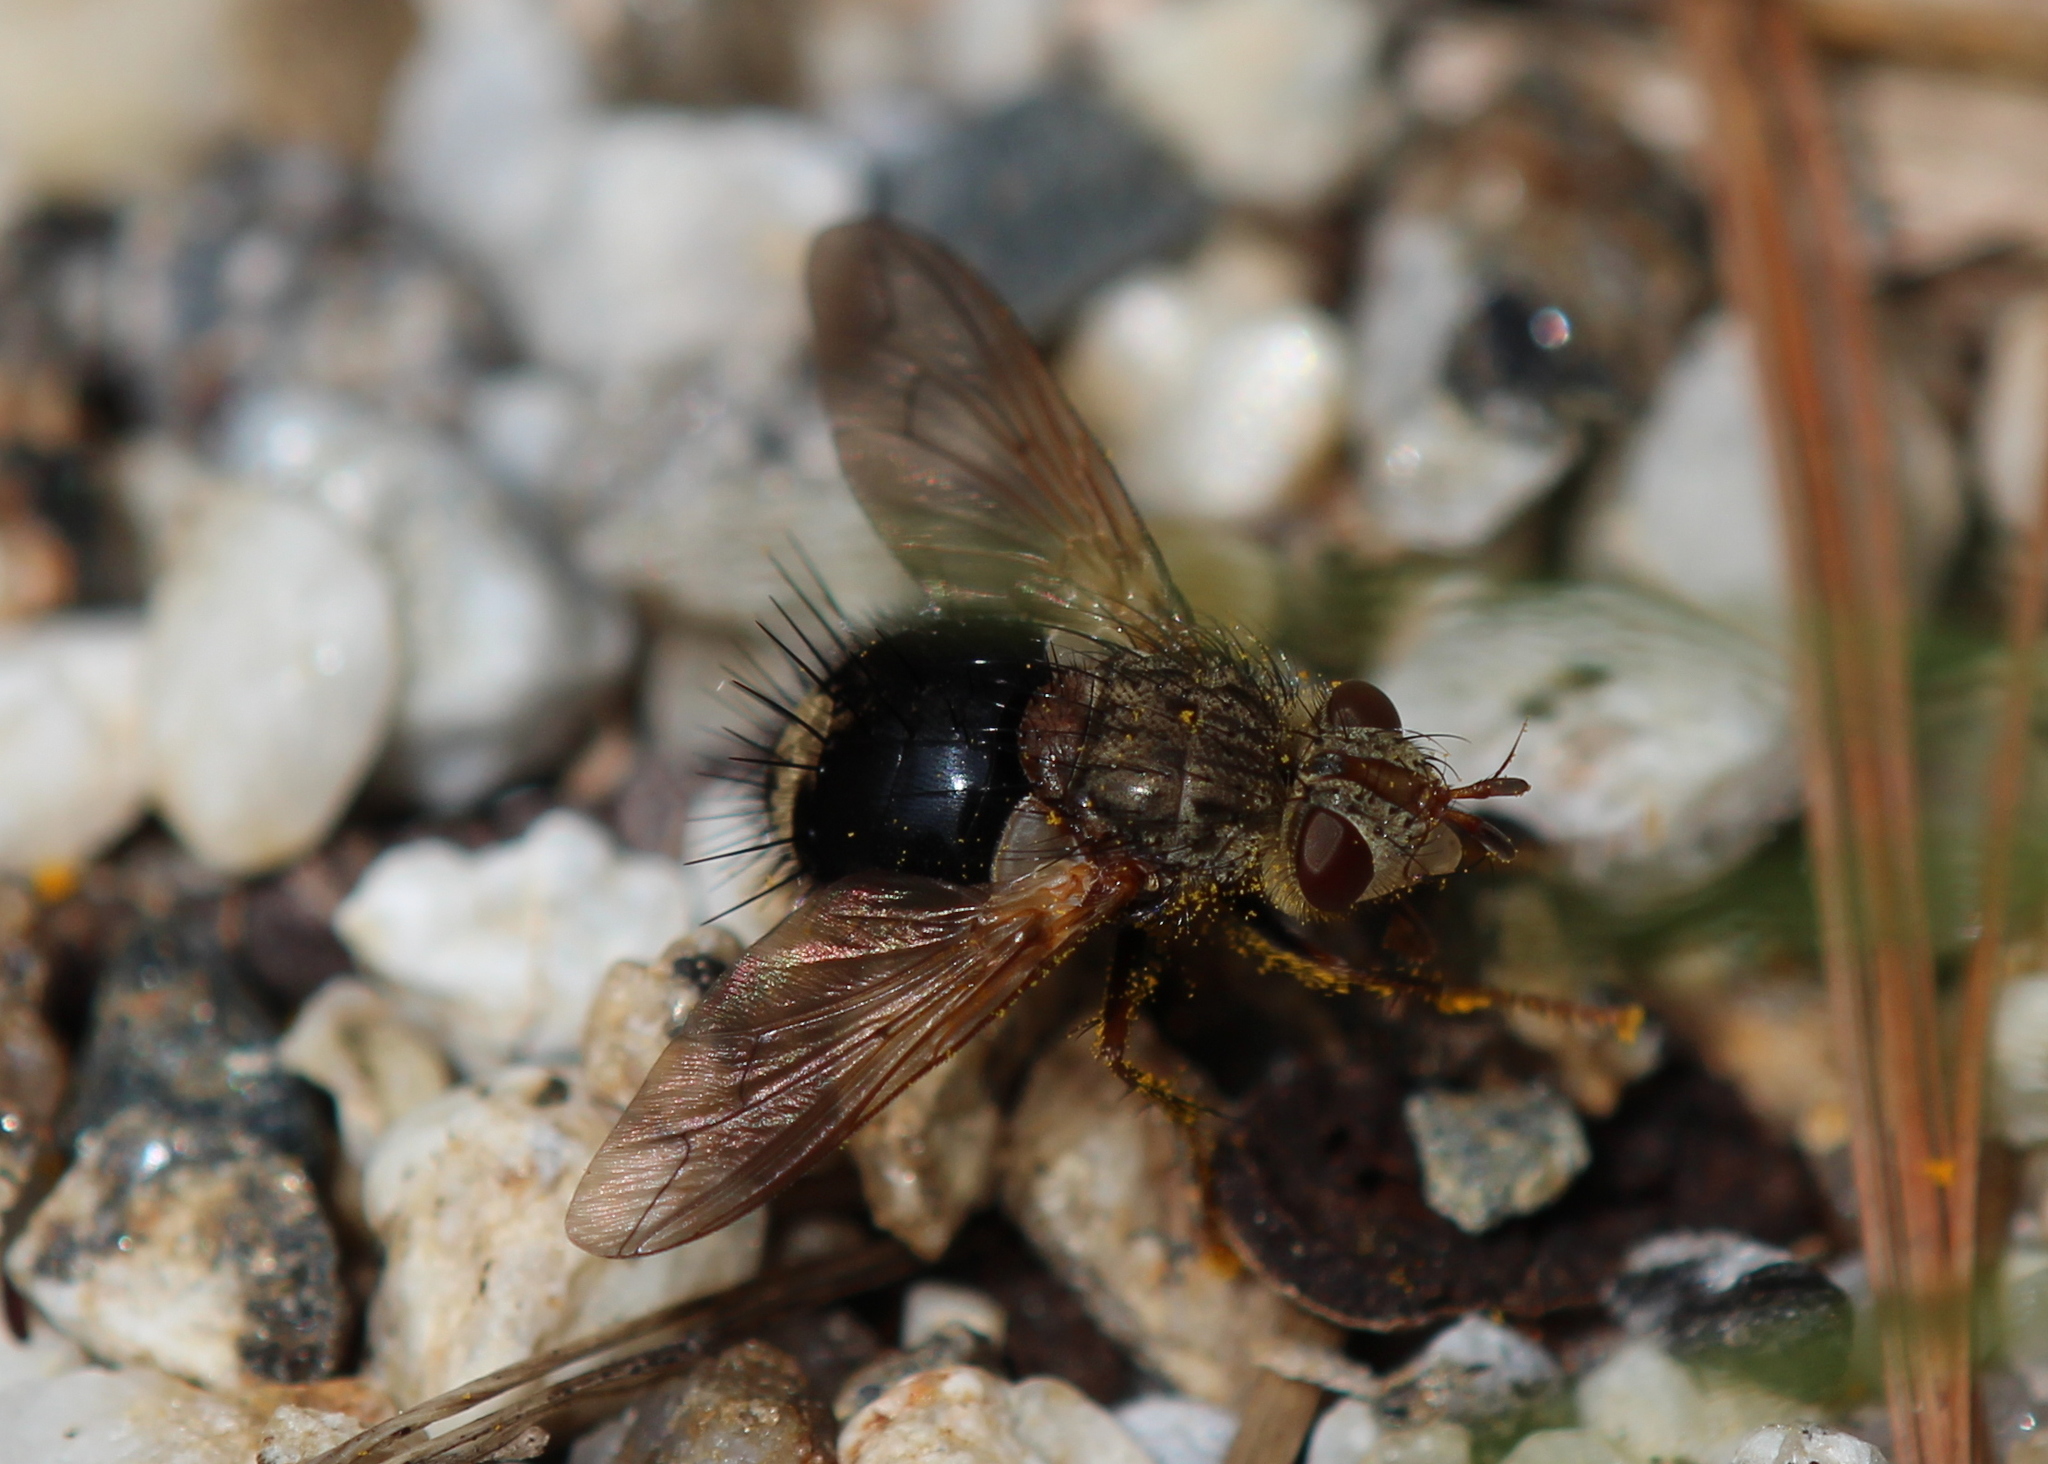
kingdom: Animalia
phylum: Arthropoda
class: Insecta
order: Diptera
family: Tachinidae
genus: Epalpus
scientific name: Epalpus signifer
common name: Early tachinid fly
